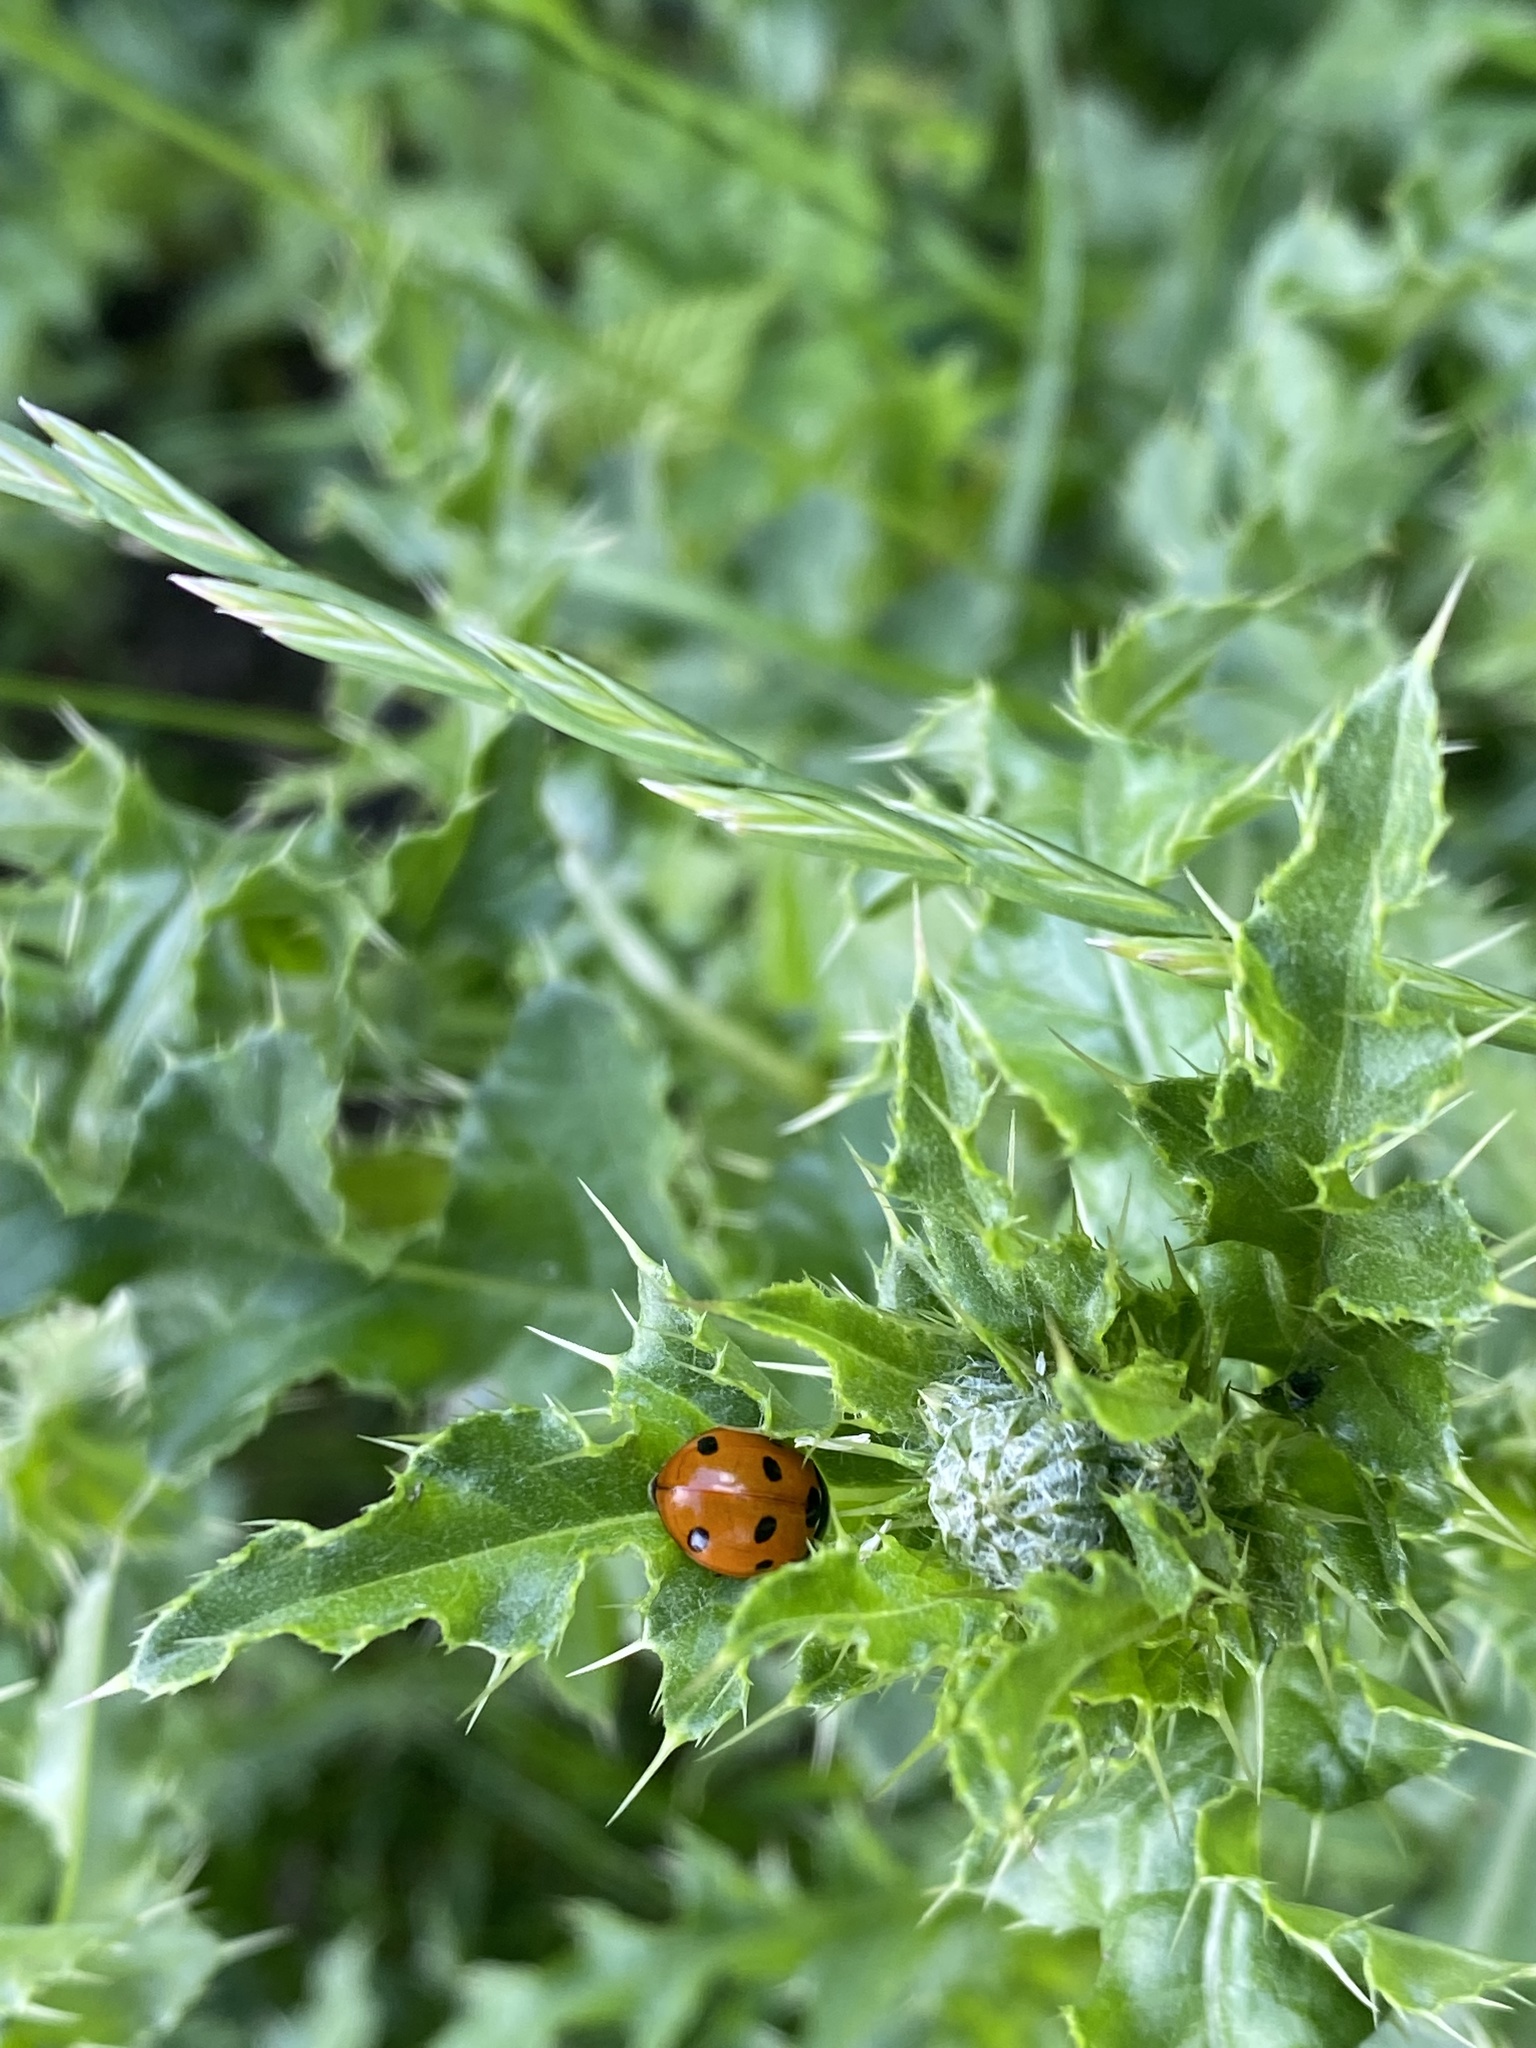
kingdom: Animalia
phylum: Arthropoda
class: Insecta
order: Coleoptera
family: Coccinellidae
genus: Coccinella
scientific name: Coccinella septempunctata
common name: Sevenspotted lady beetle
